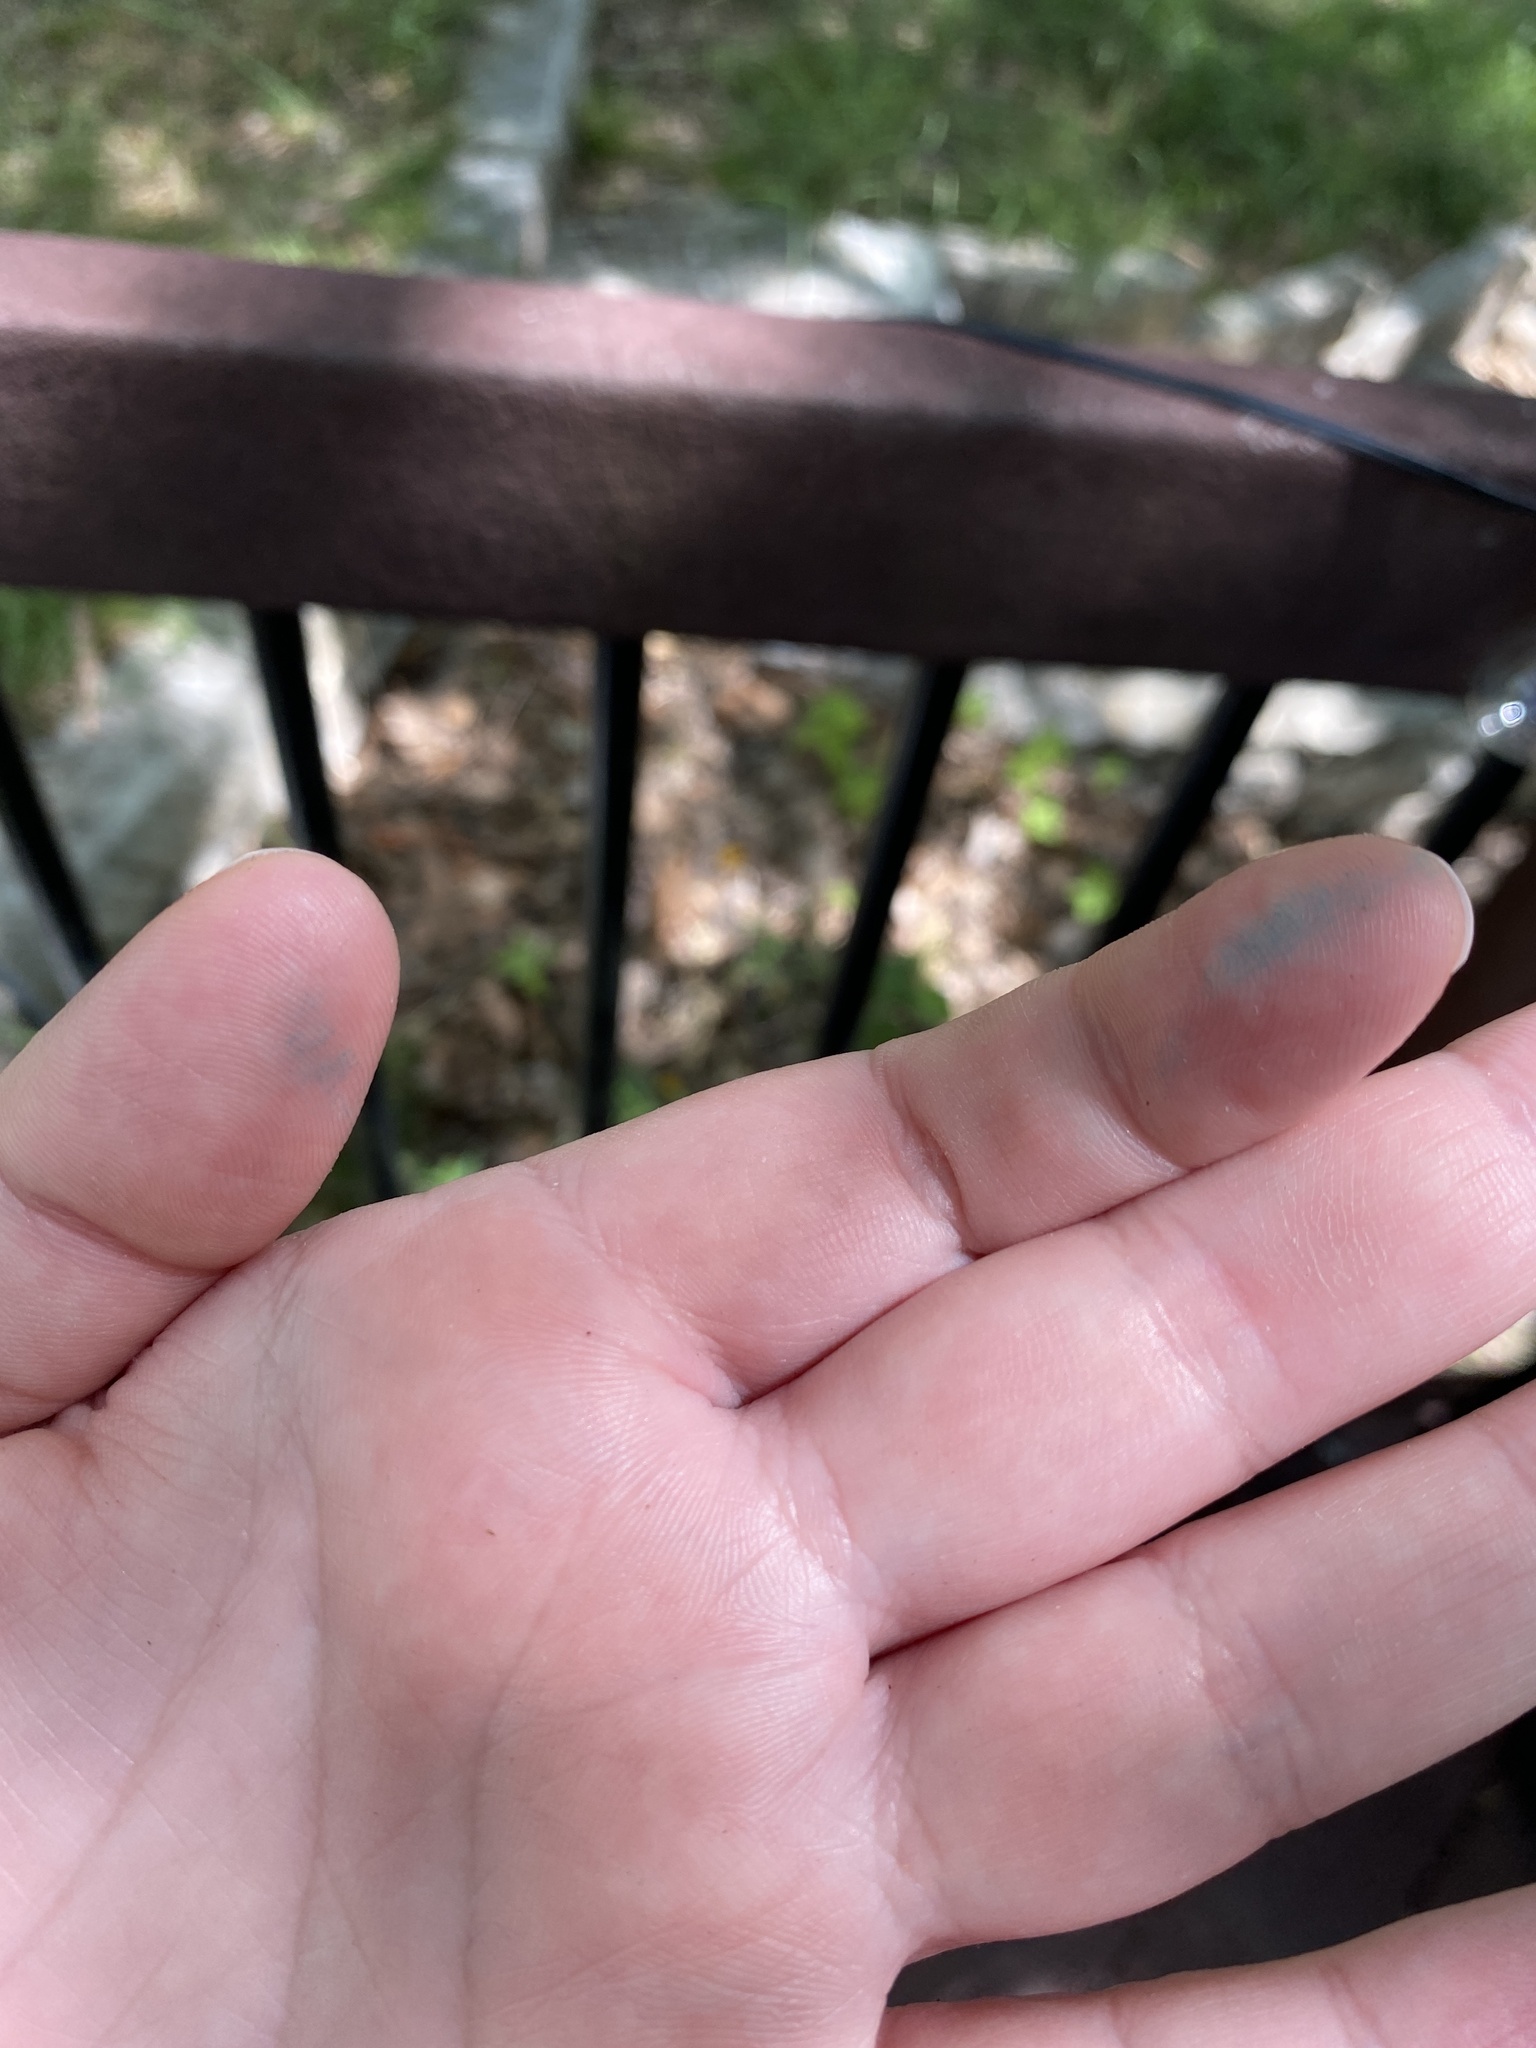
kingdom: Animalia
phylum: Arthropoda
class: Insecta
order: Lepidoptera
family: Notodontidae
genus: Misogada
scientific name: Misogada unicolor
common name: Drab prominent
